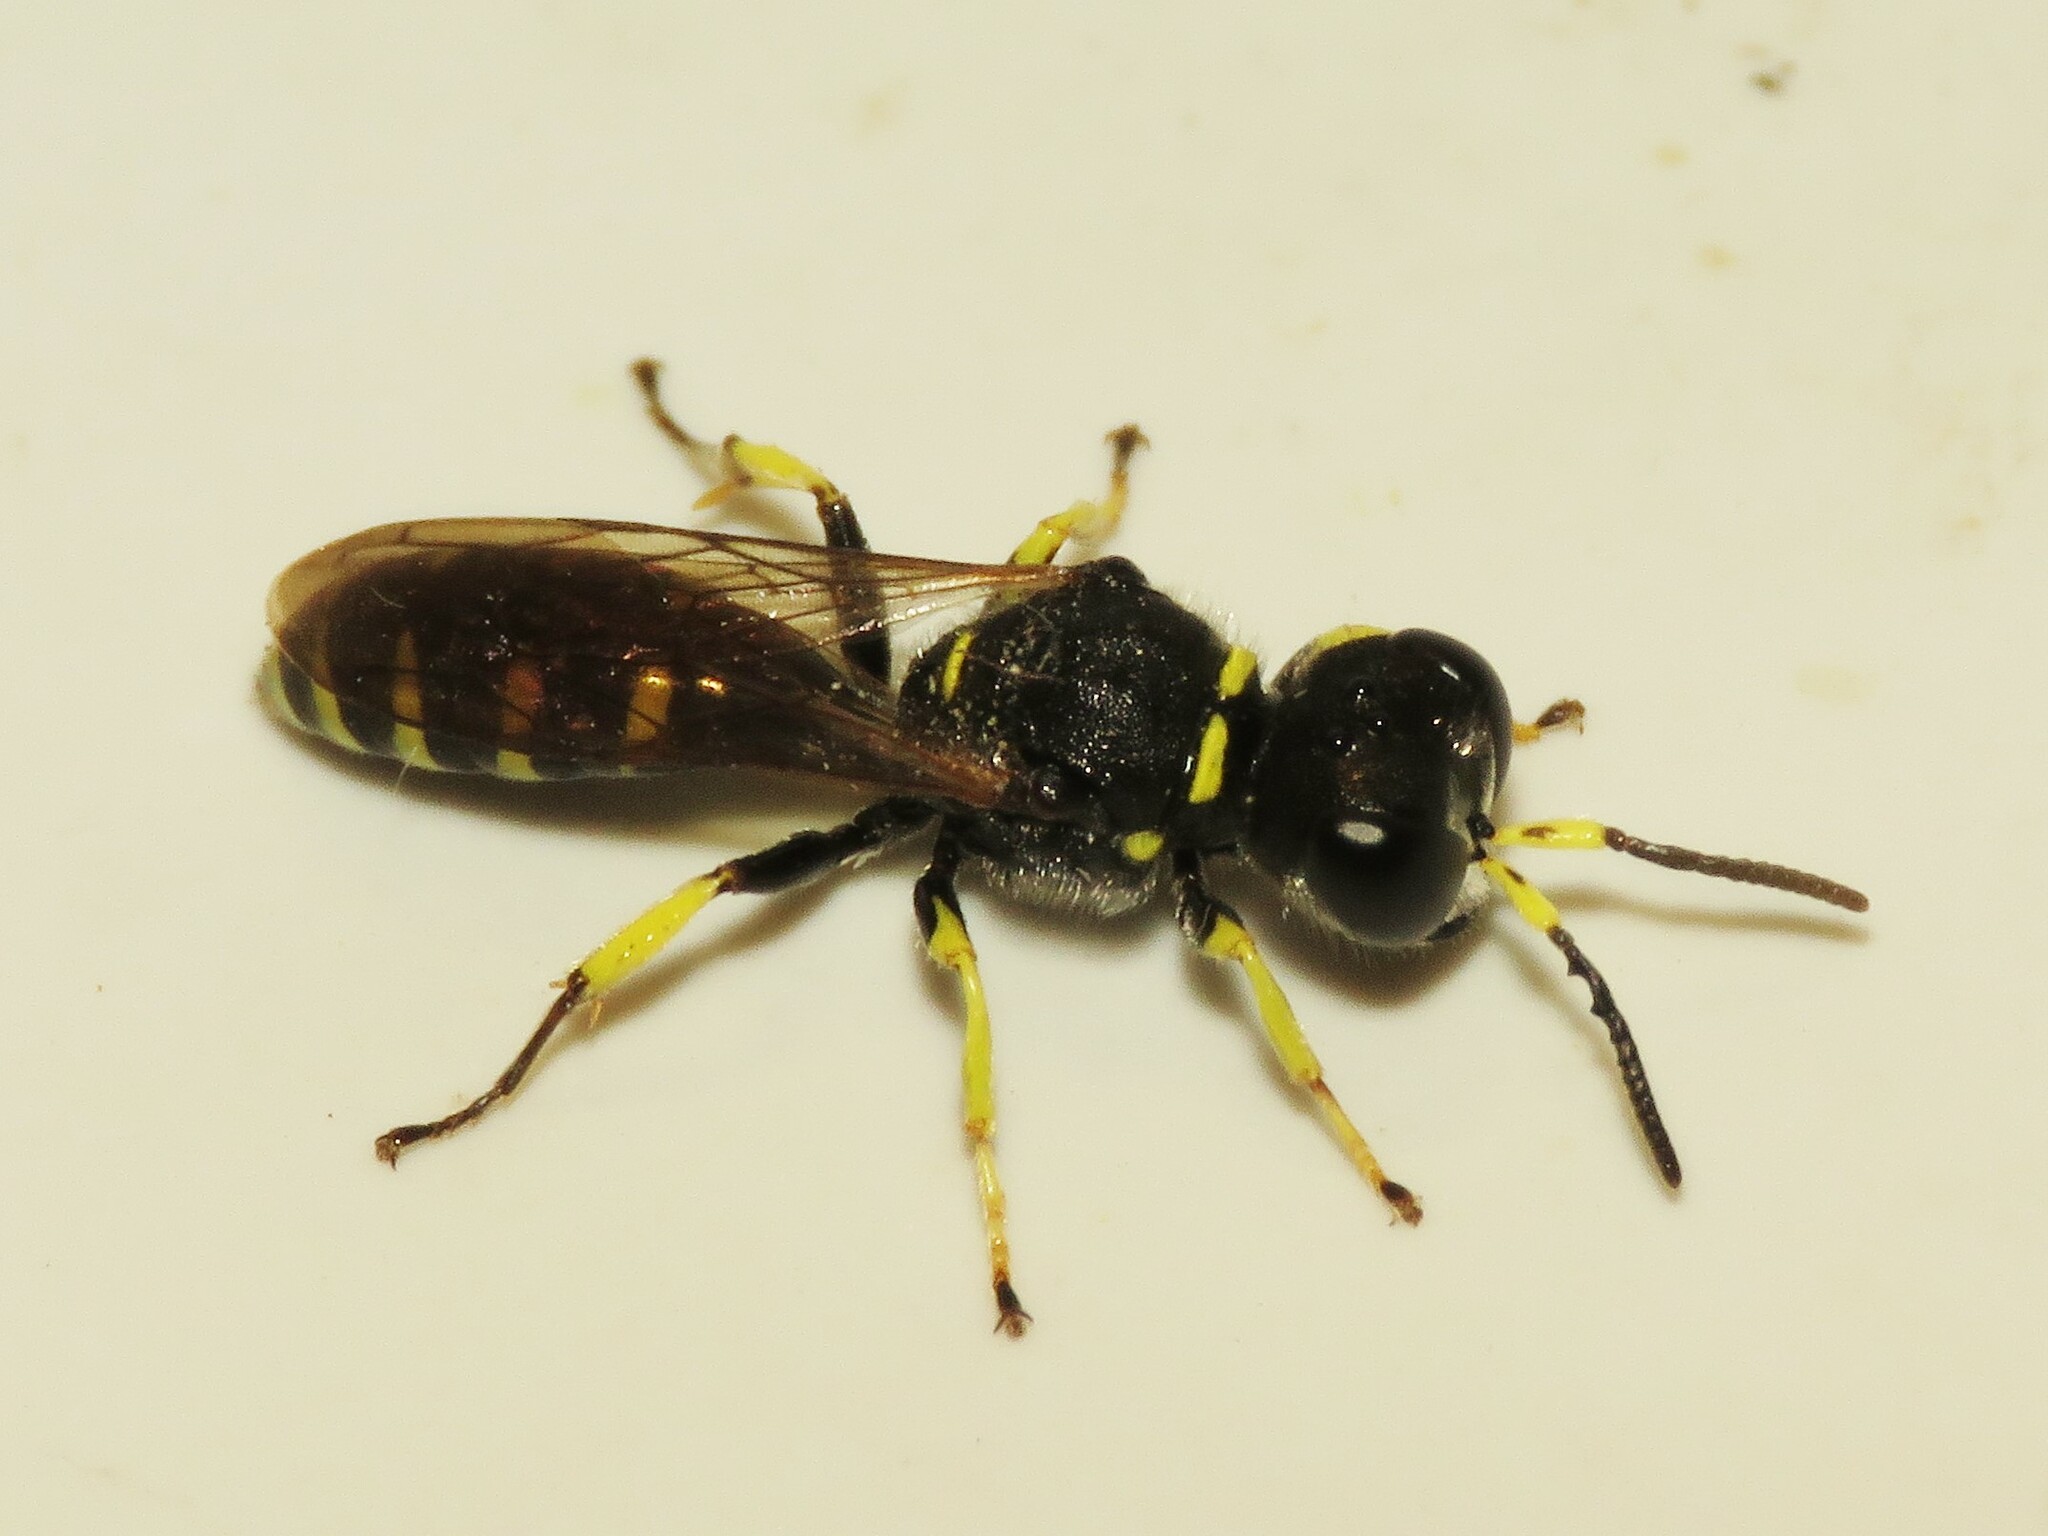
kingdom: Animalia
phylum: Arthropoda
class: Insecta
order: Hymenoptera
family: Crabronidae
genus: Ectemnius
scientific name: Ectemnius lapidarius
